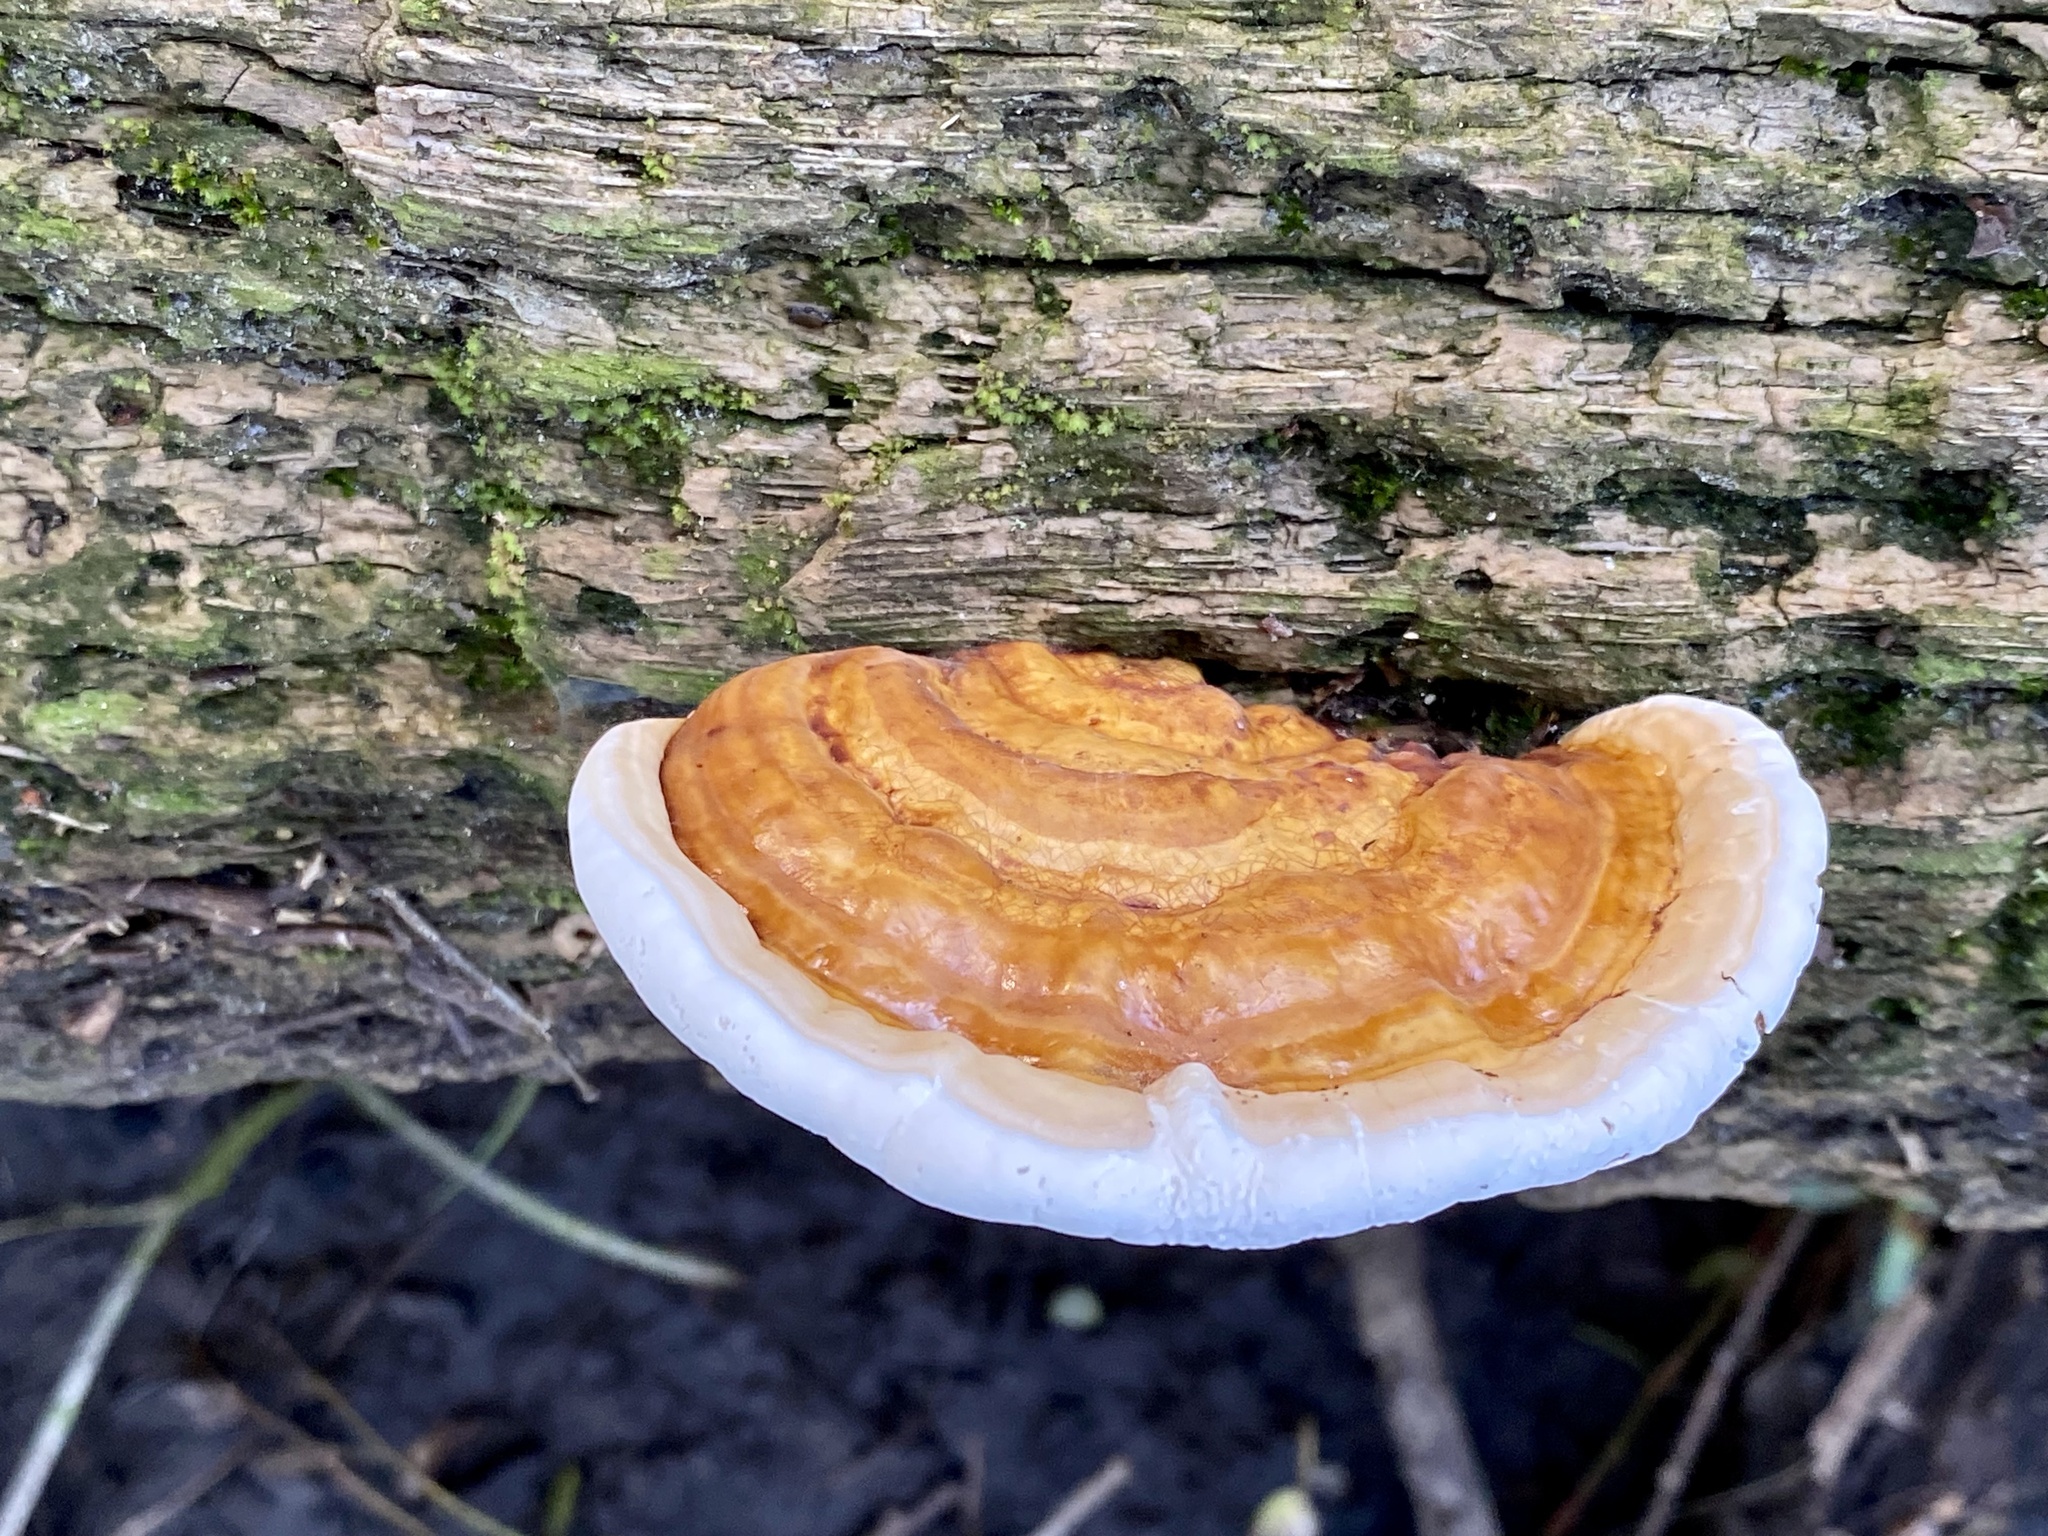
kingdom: Fungi
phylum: Basidiomycota
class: Agaricomycetes
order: Polyporales
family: Polyporaceae
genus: Ganoderma
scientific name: Ganoderma zonatum
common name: Ganoderma butt rot
